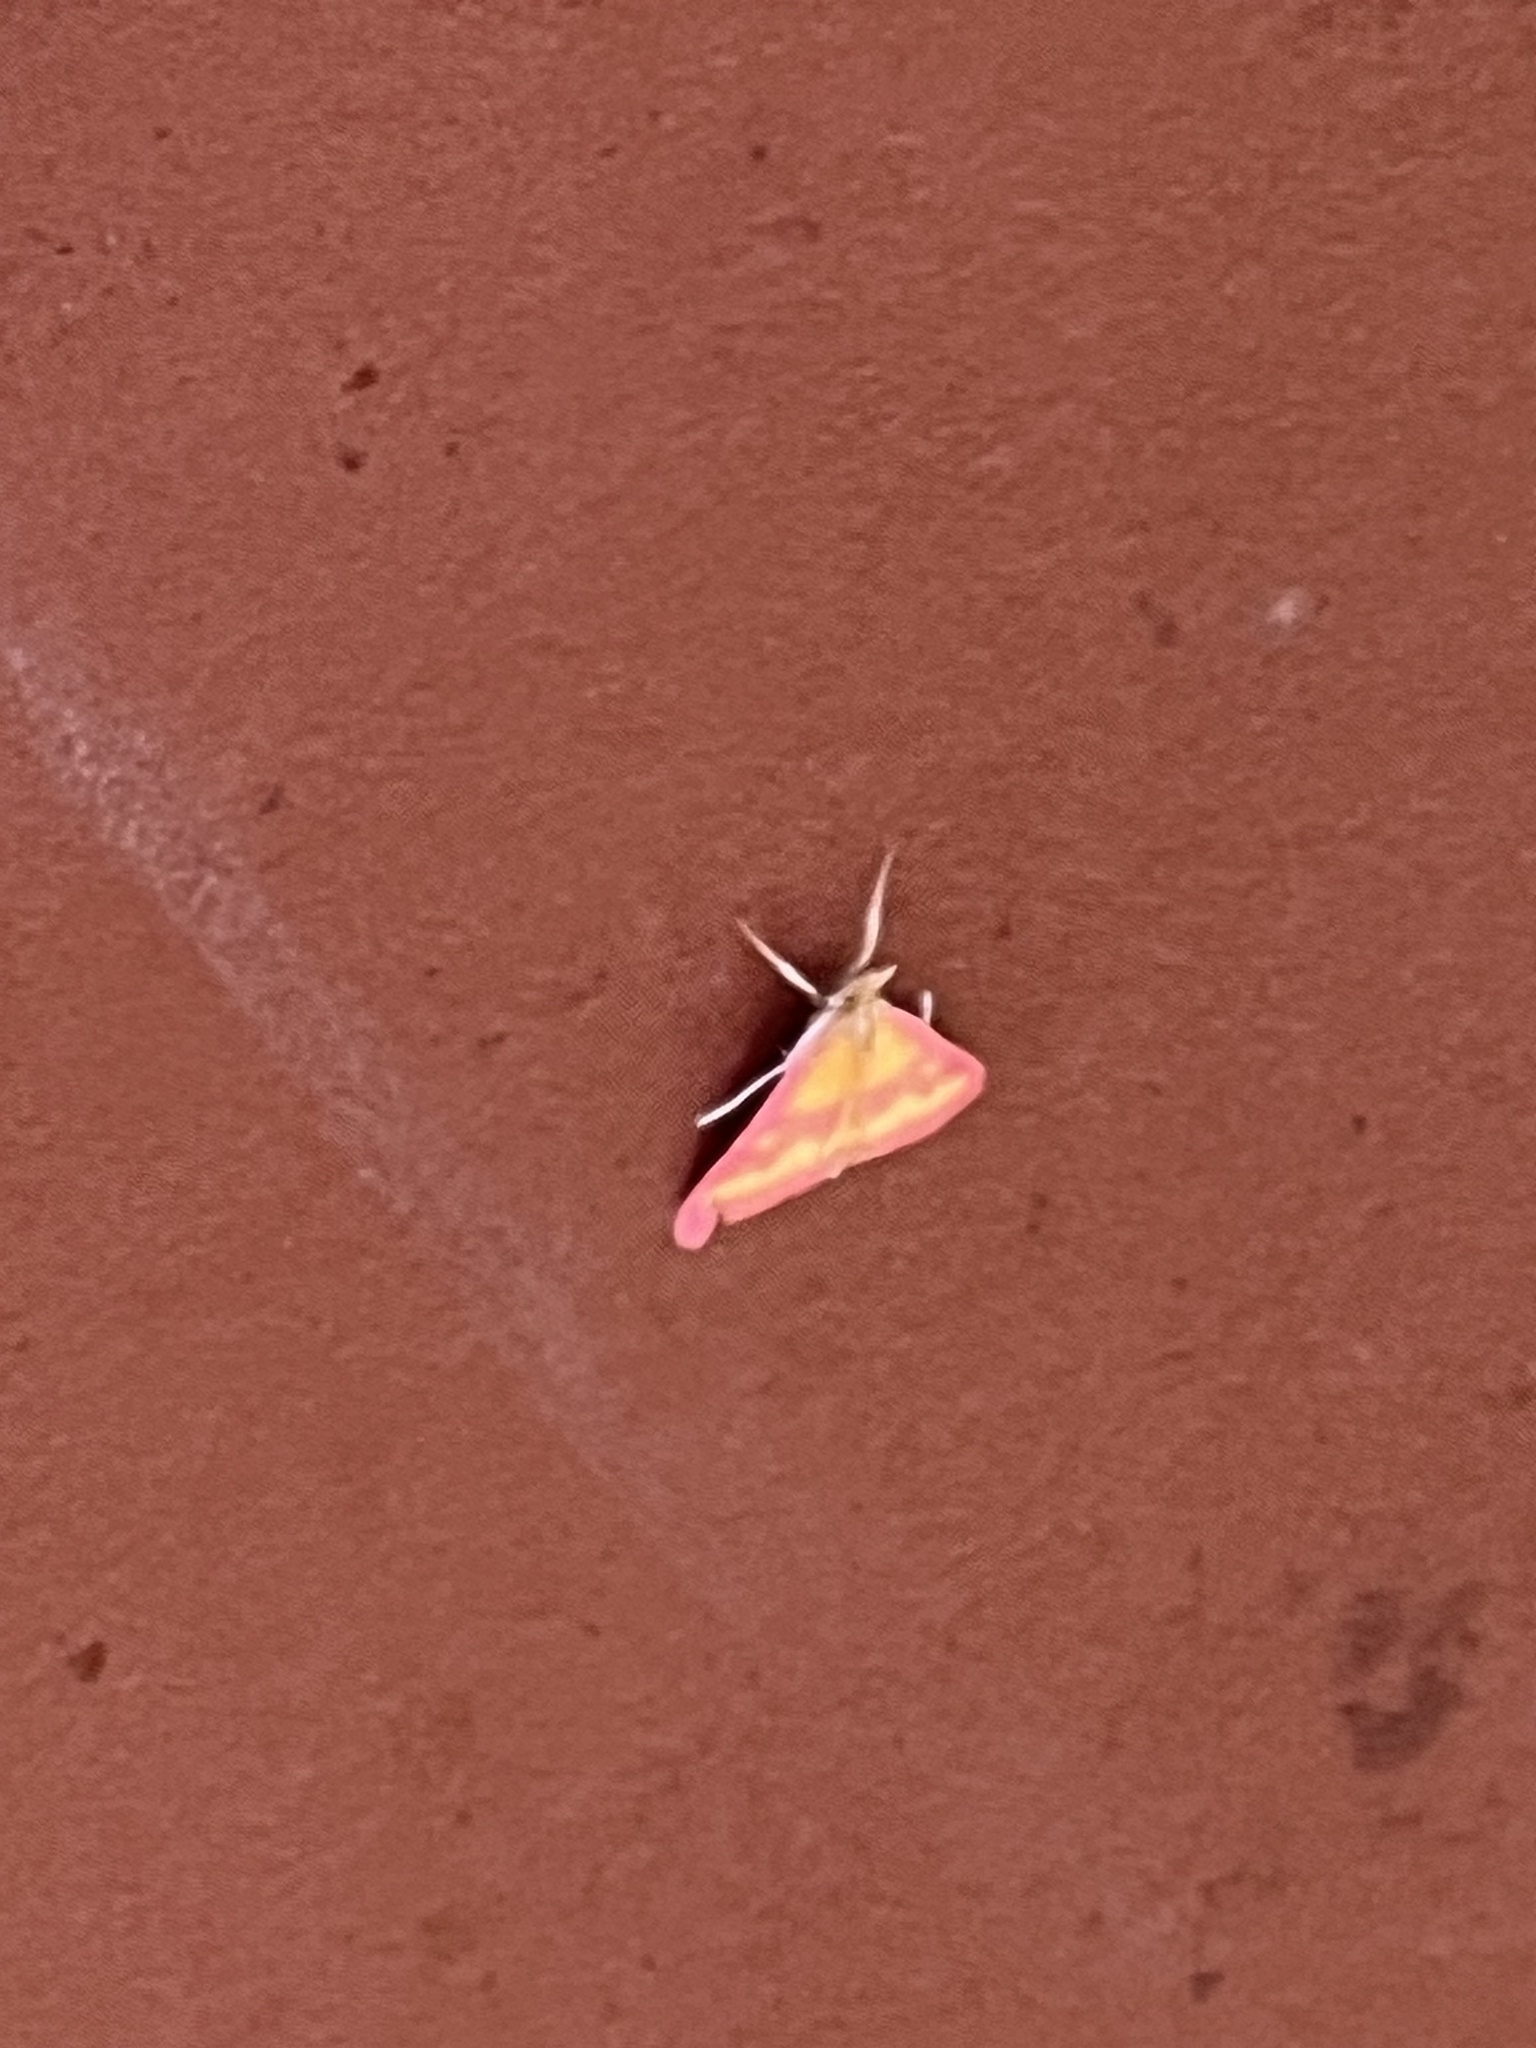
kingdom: Animalia
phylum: Arthropoda
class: Insecta
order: Lepidoptera
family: Crambidae
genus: Pyrausta
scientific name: Pyrausta laticlavia
